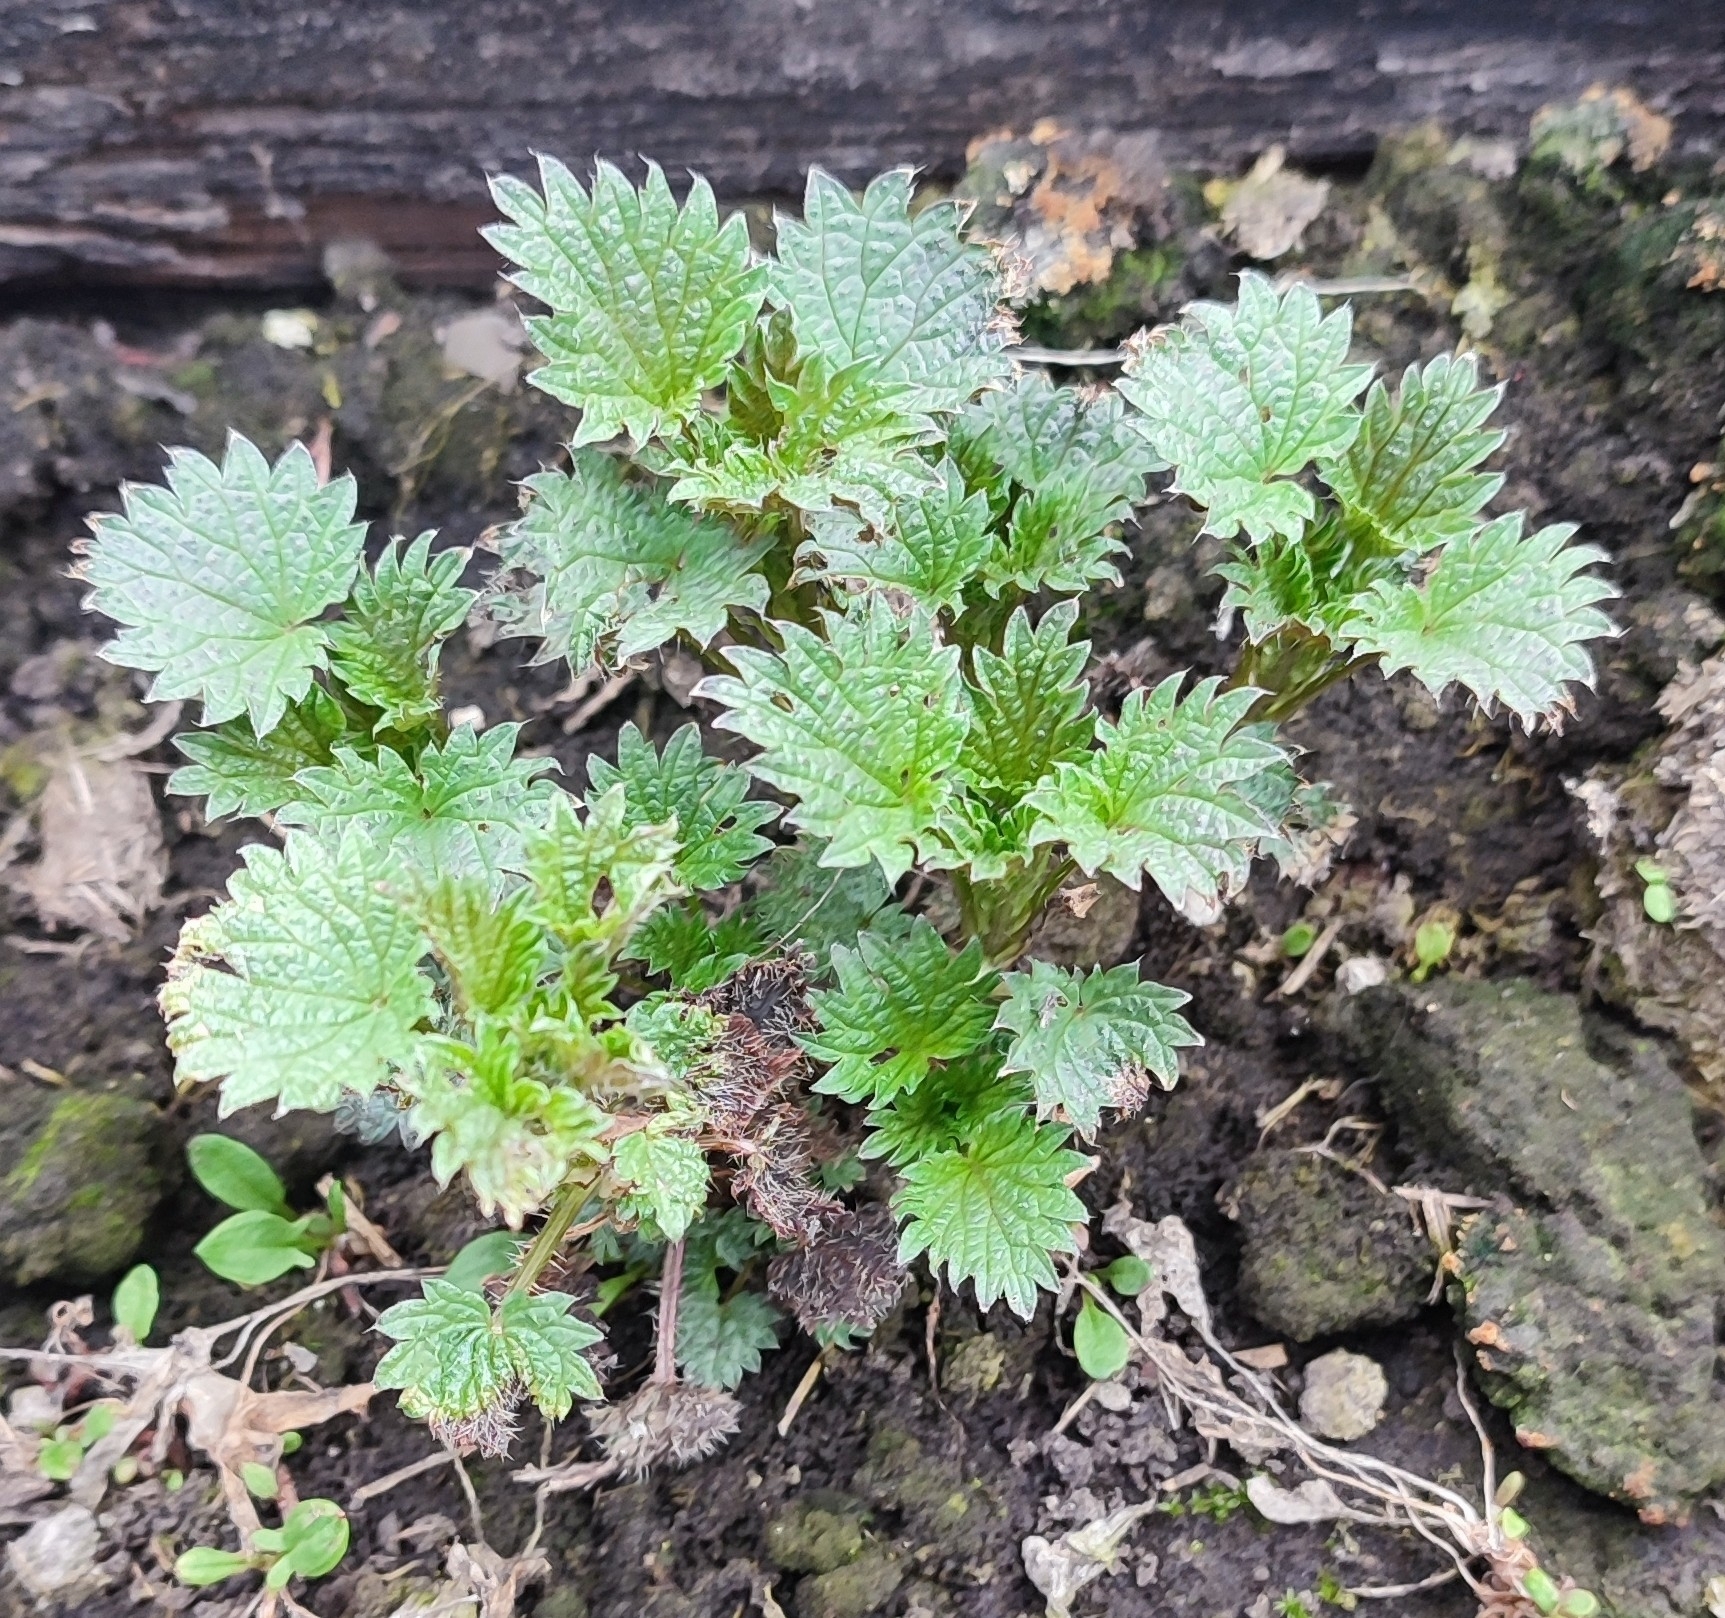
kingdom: Plantae
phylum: Tracheophyta
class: Magnoliopsida
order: Rosales
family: Urticaceae
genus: Urtica
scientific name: Urtica dioica
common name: Common nettle
